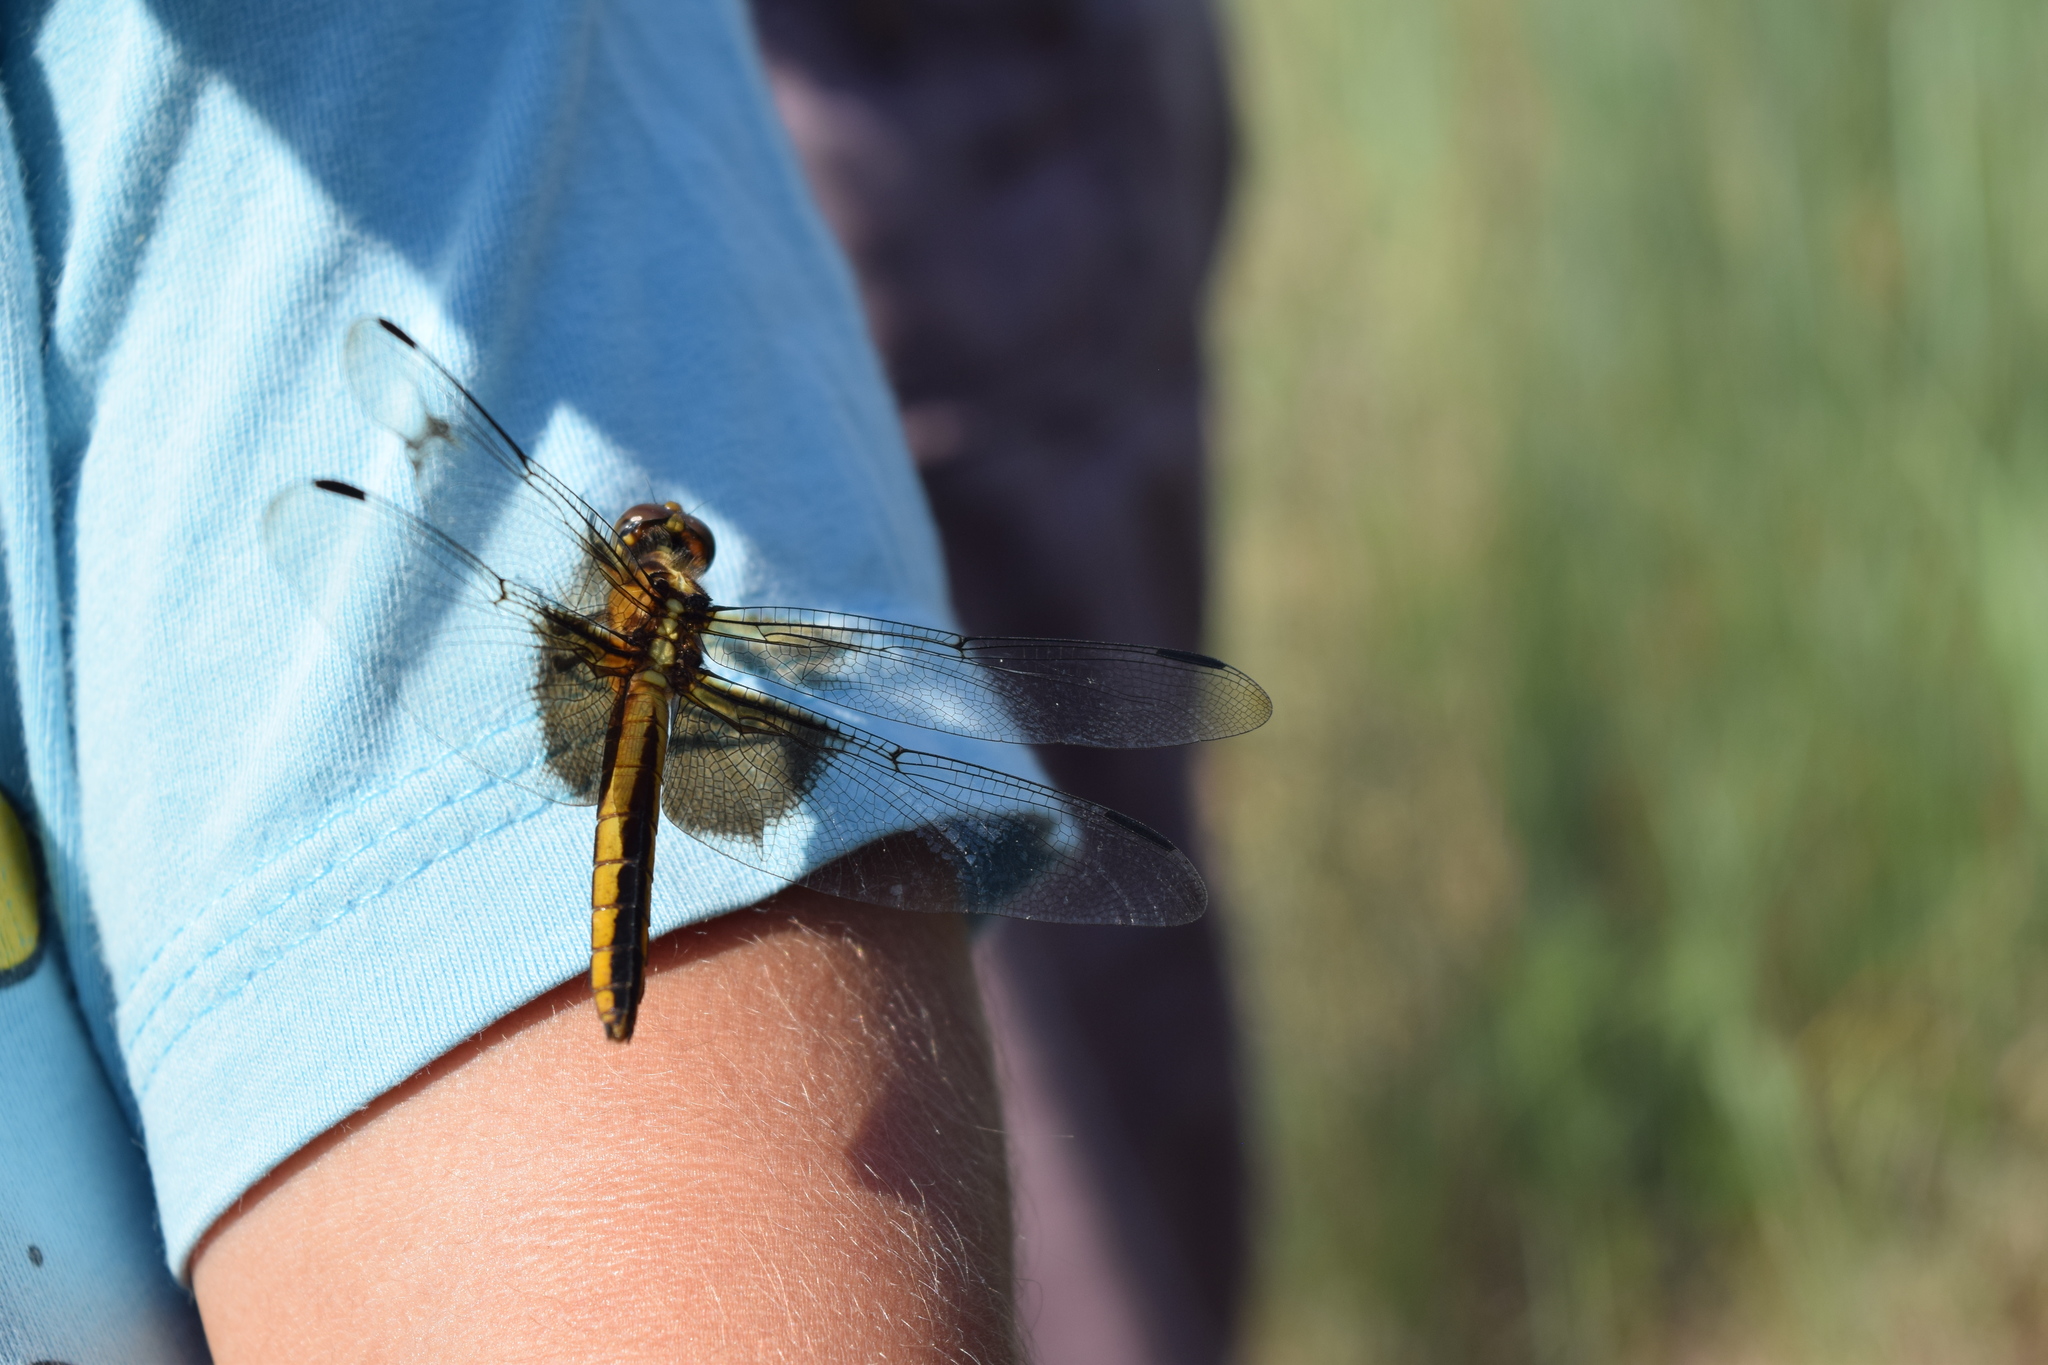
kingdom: Animalia
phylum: Arthropoda
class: Insecta
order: Odonata
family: Libellulidae
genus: Libellula
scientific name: Libellula luctuosa
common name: Widow skimmer
